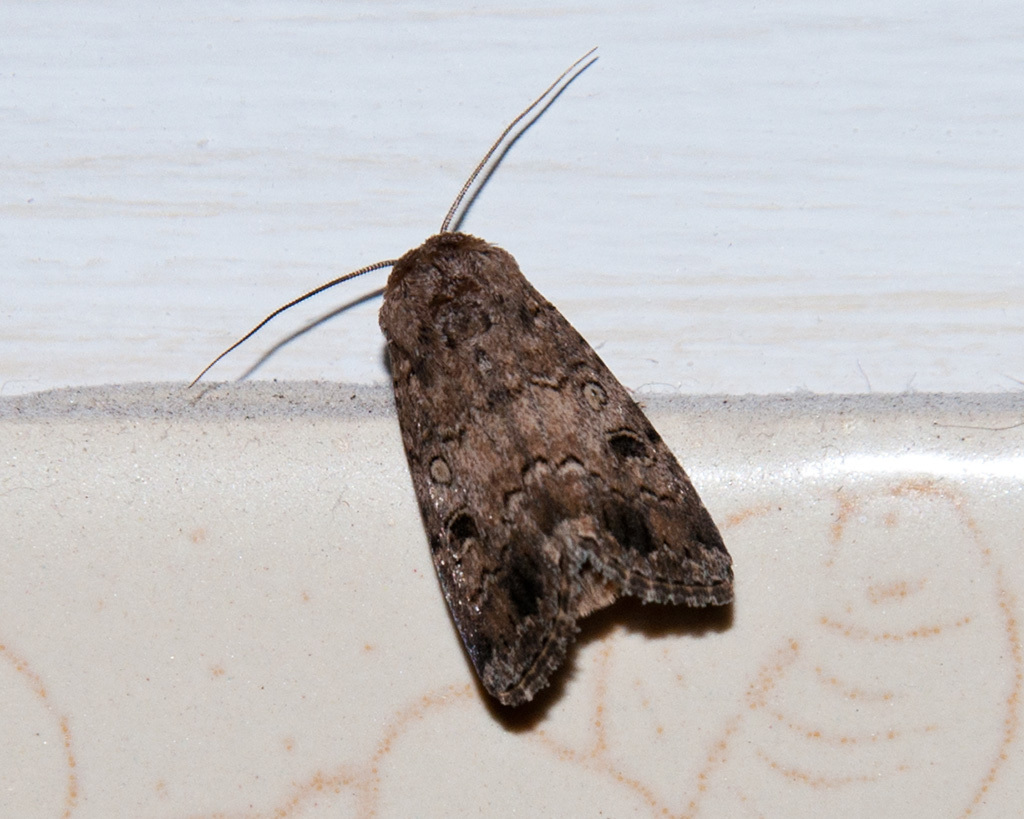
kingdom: Animalia
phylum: Arthropoda
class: Insecta
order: Lepidoptera
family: Noctuidae
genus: Spodoptera
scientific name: Spodoptera triturata
